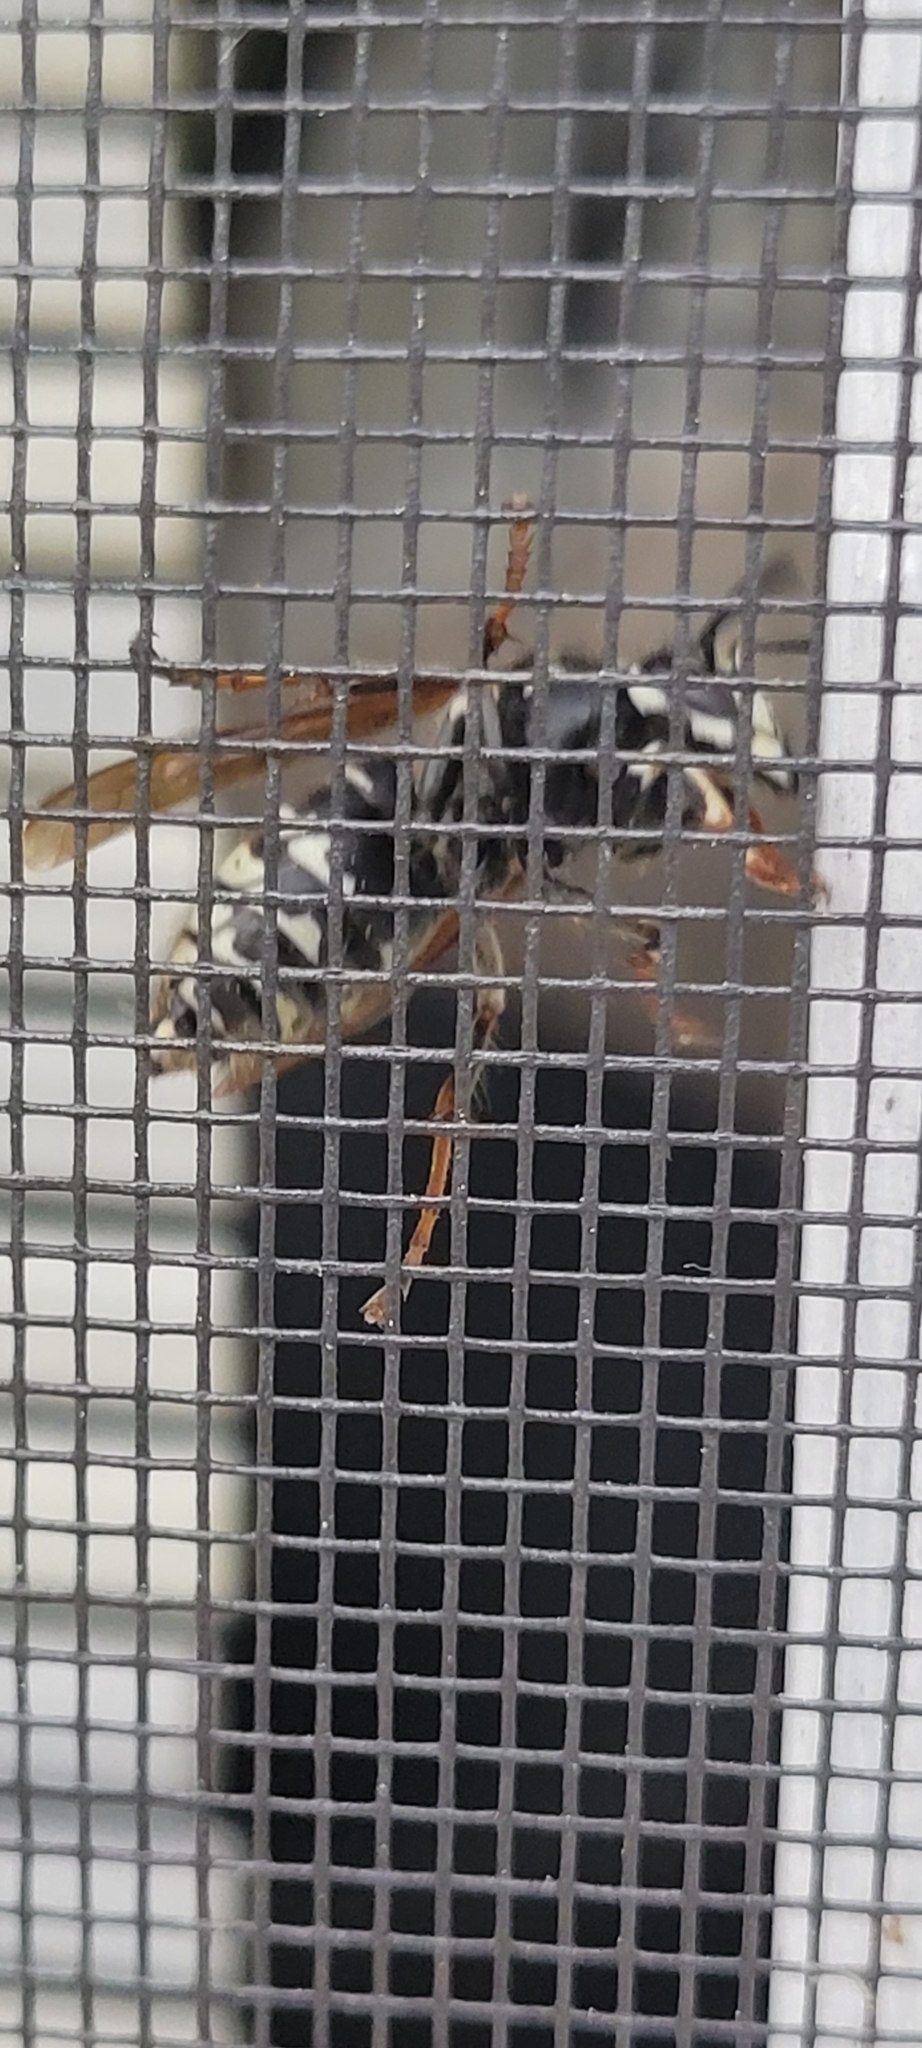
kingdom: Animalia
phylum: Arthropoda
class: Insecta
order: Hymenoptera
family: Vespidae
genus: Dolichovespula
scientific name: Dolichovespula maculata
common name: Bald-faced hornet
